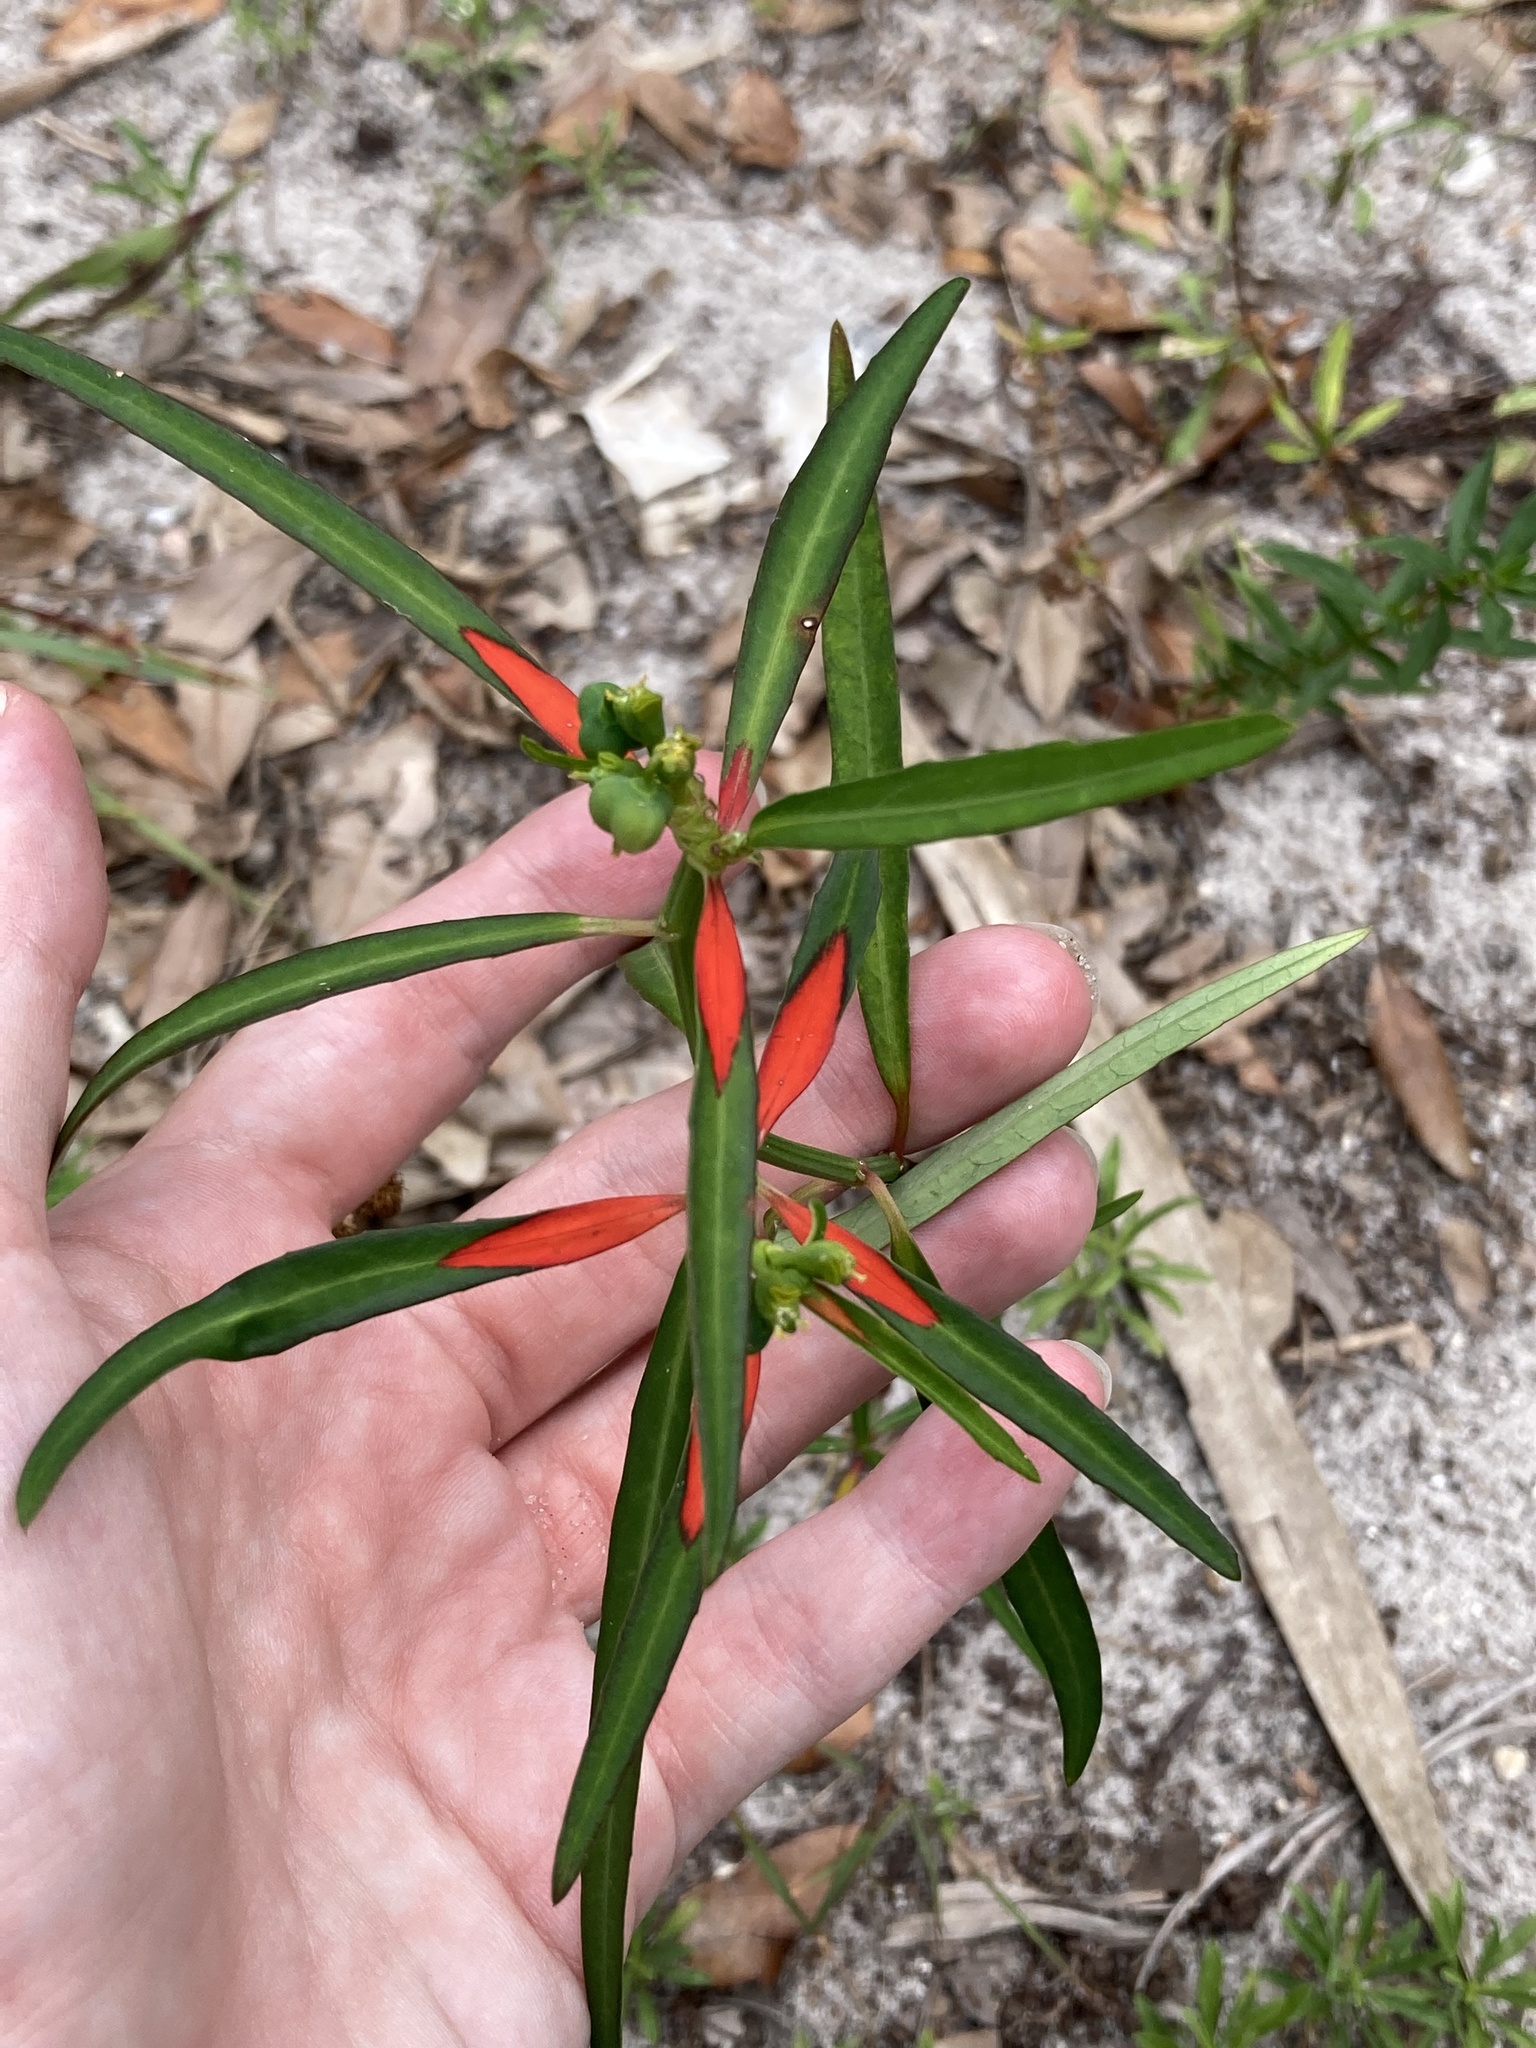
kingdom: Plantae
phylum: Tracheophyta
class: Magnoliopsida
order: Malpighiales
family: Euphorbiaceae
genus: Euphorbia
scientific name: Euphorbia heterophylla
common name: Mexican fireplant
